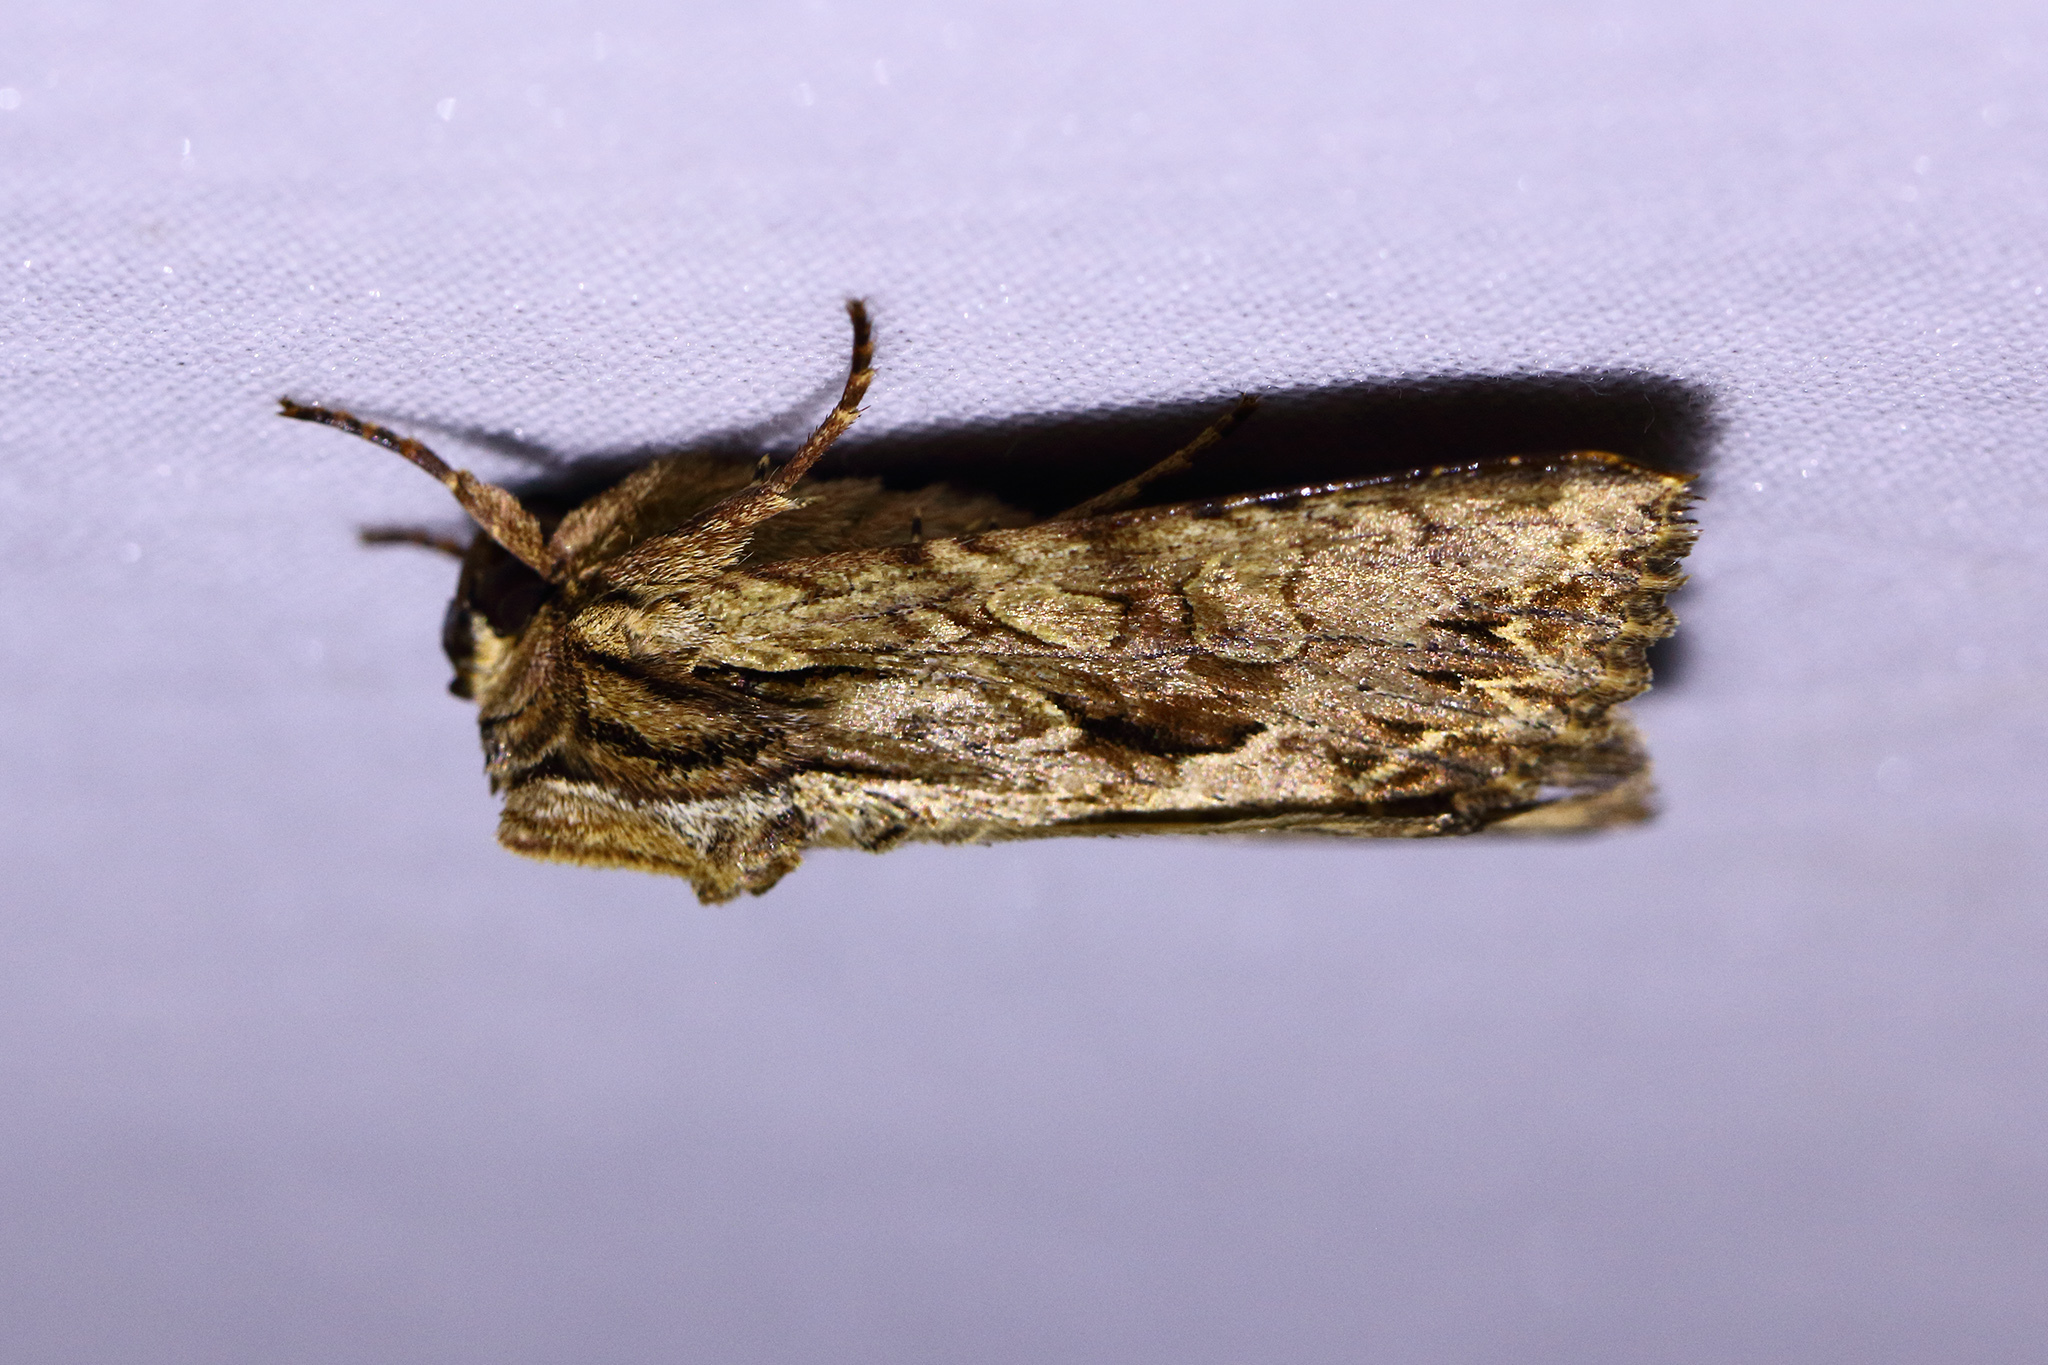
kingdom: Animalia
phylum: Arthropoda
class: Insecta
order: Lepidoptera
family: Noctuidae
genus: Apamea
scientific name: Apamea monoglypha
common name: Dark arches
